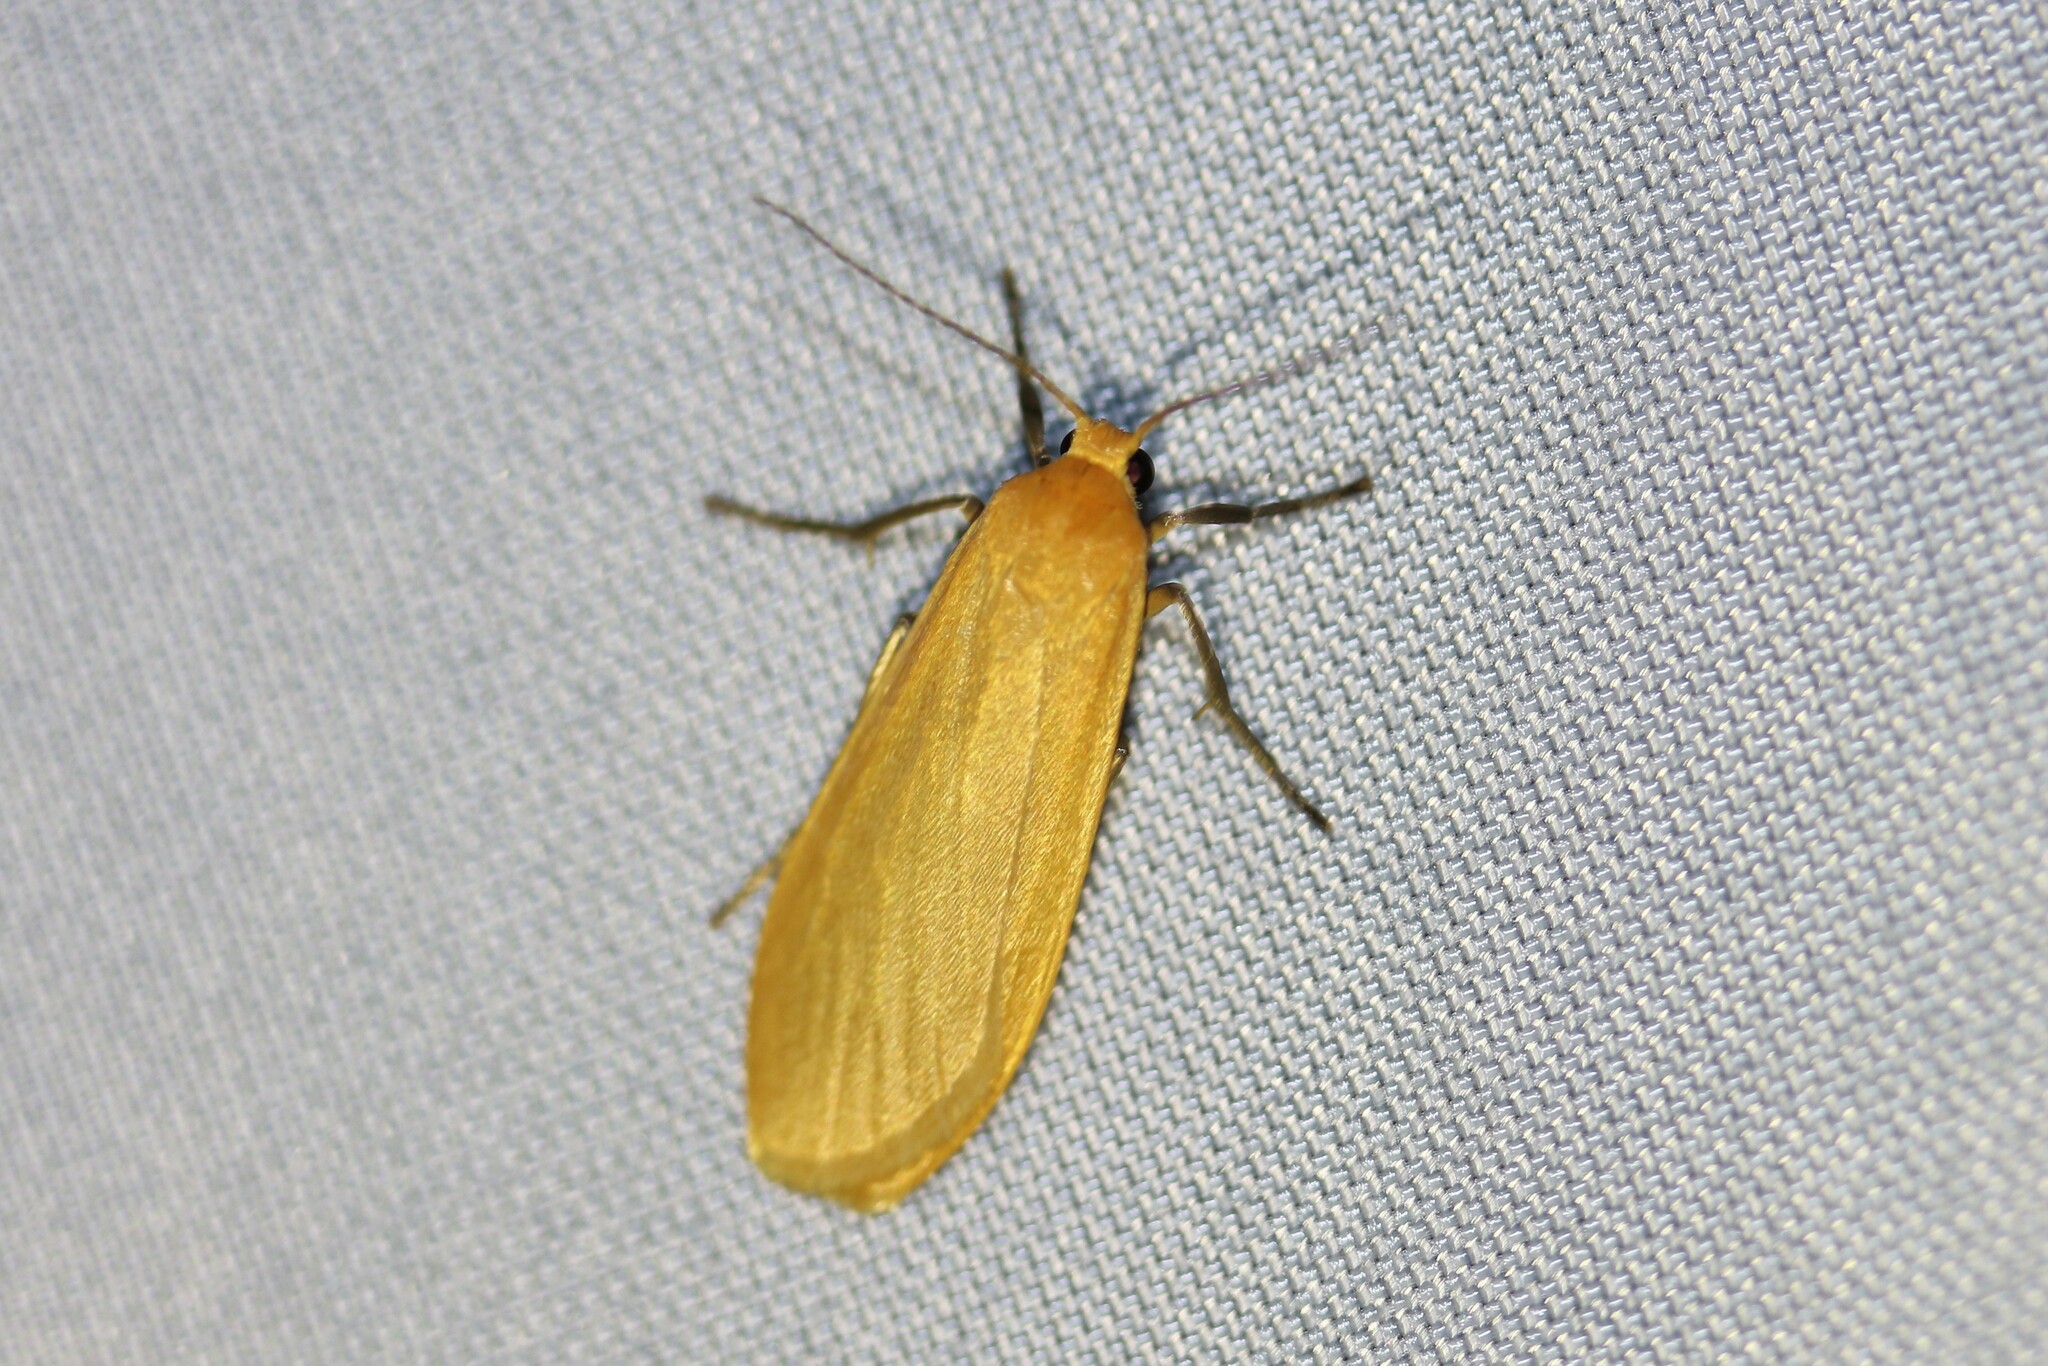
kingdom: Animalia
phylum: Arthropoda
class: Insecta
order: Lepidoptera
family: Erebidae
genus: Wittia
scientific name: Wittia sororcula
